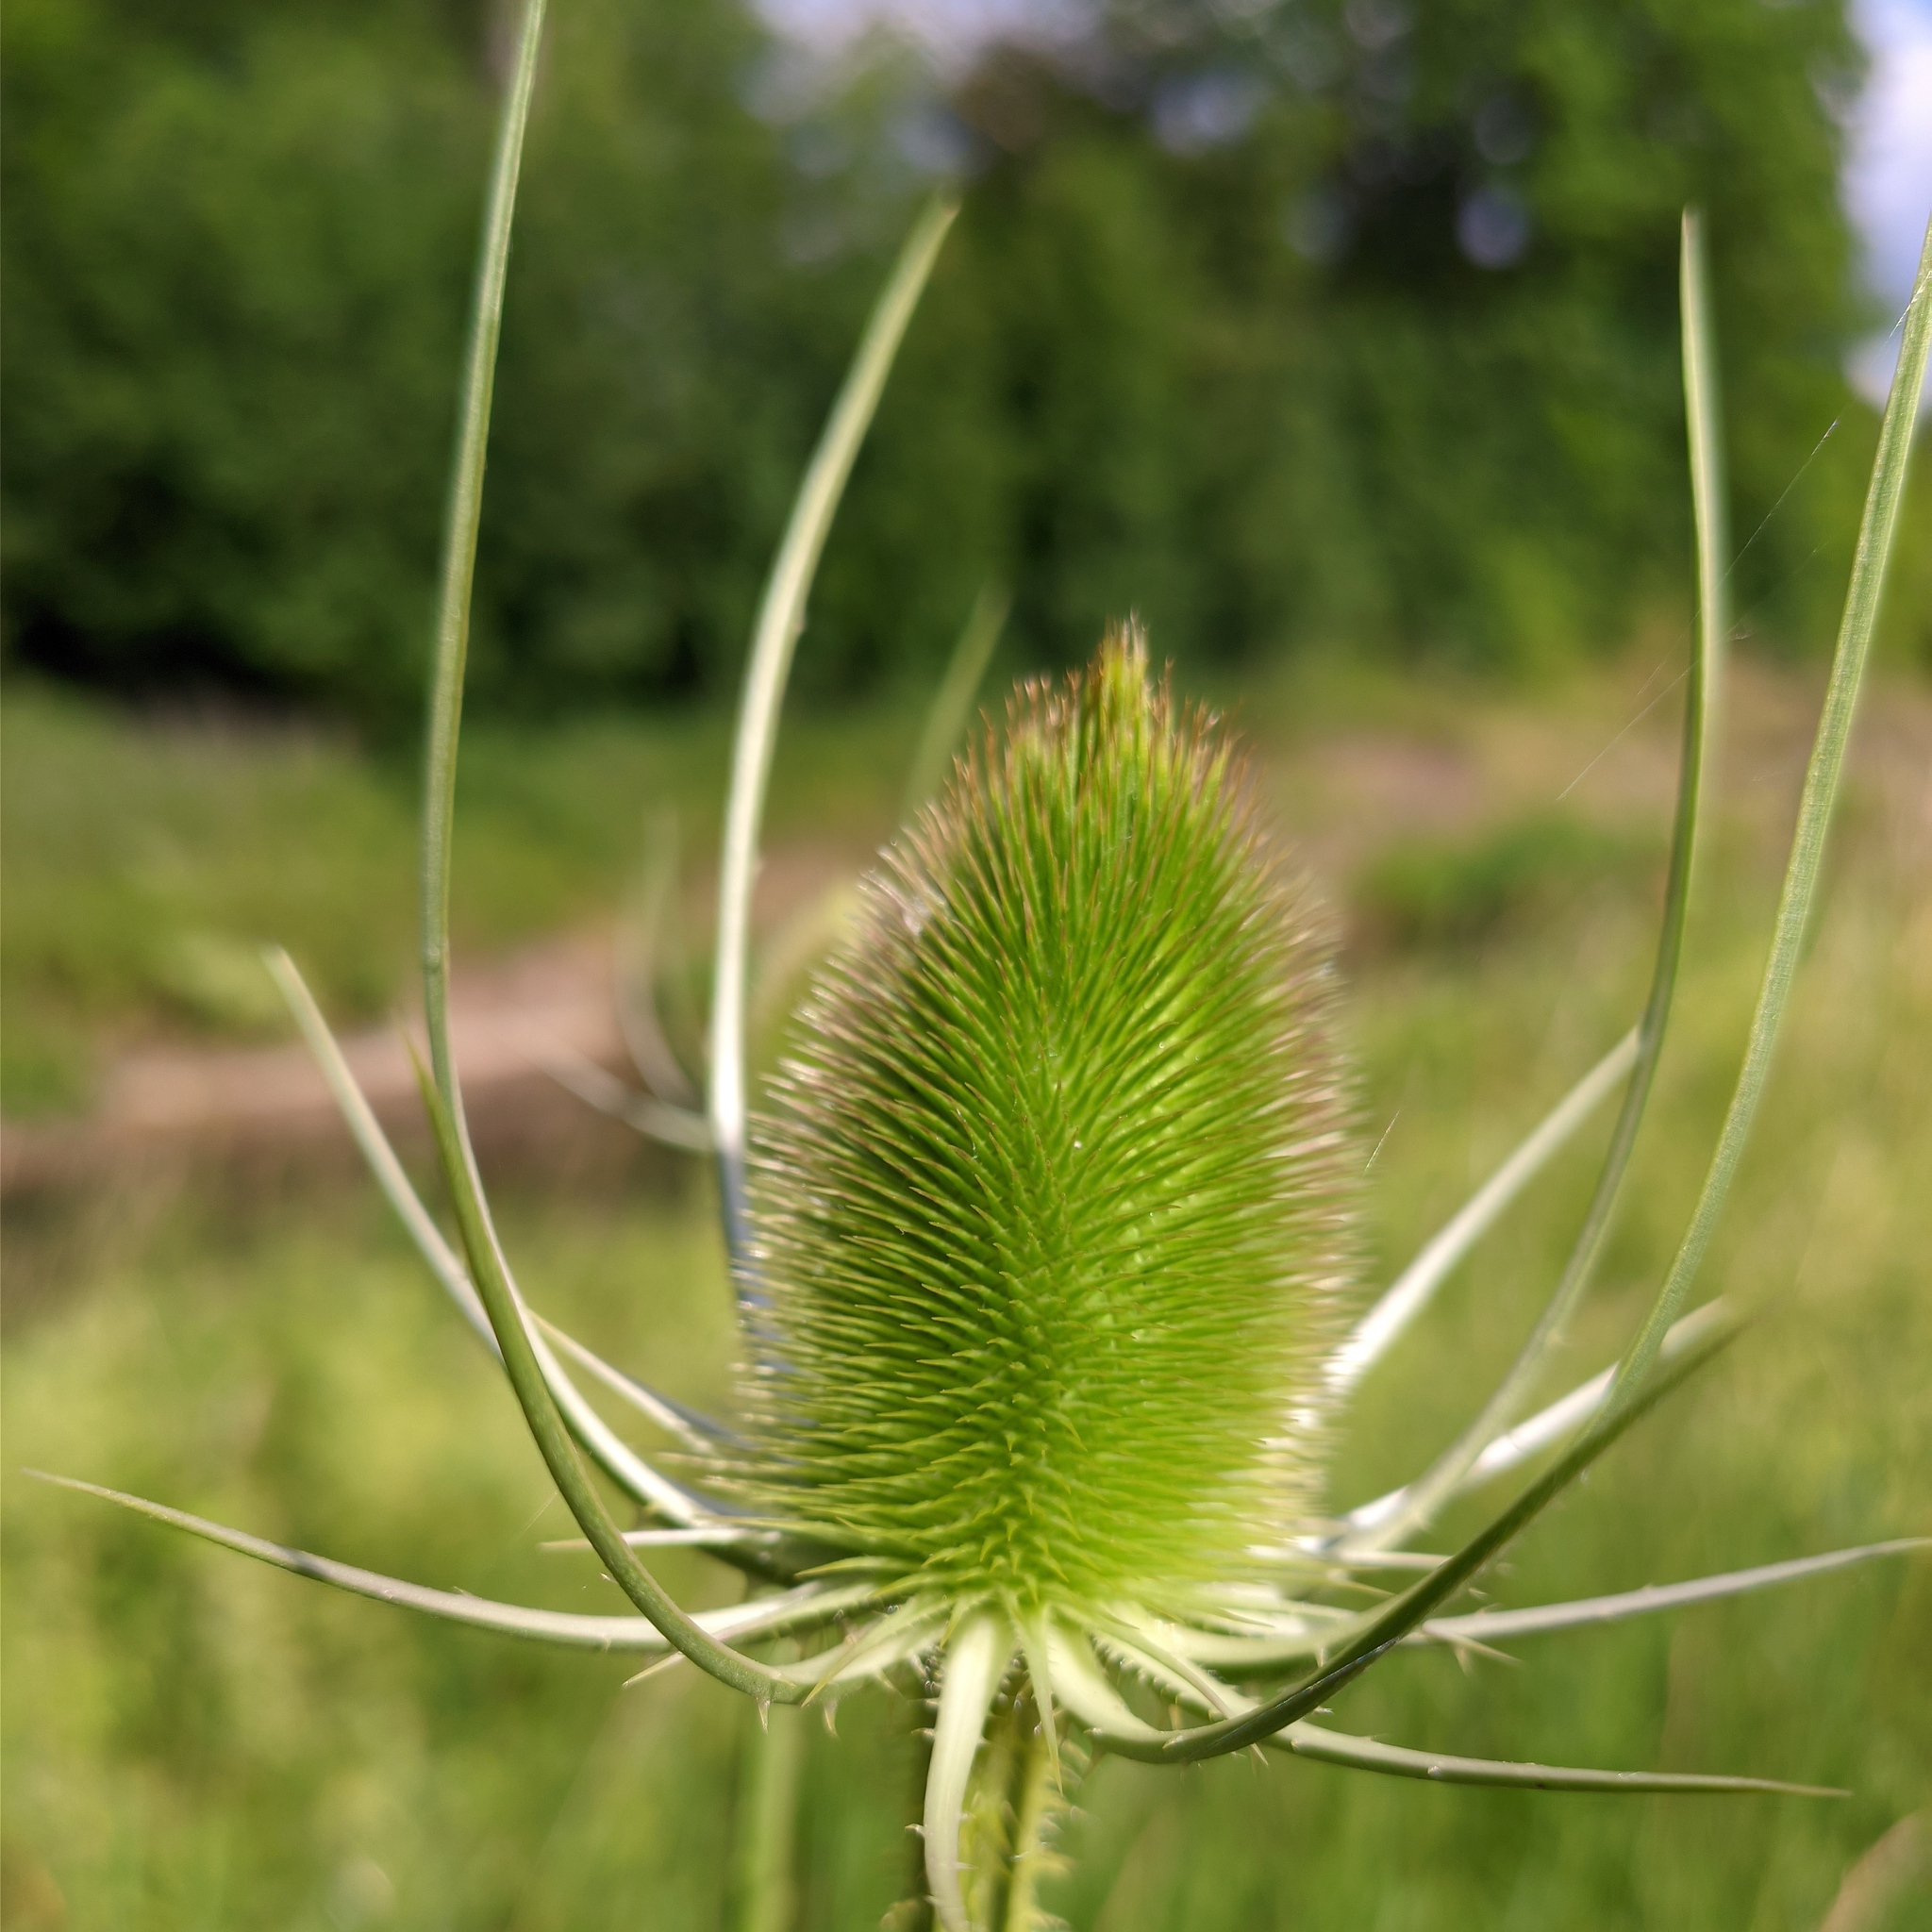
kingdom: Plantae
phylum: Tracheophyta
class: Magnoliopsida
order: Dipsacales
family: Caprifoliaceae
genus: Dipsacus
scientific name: Dipsacus fullonum
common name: Teasel
